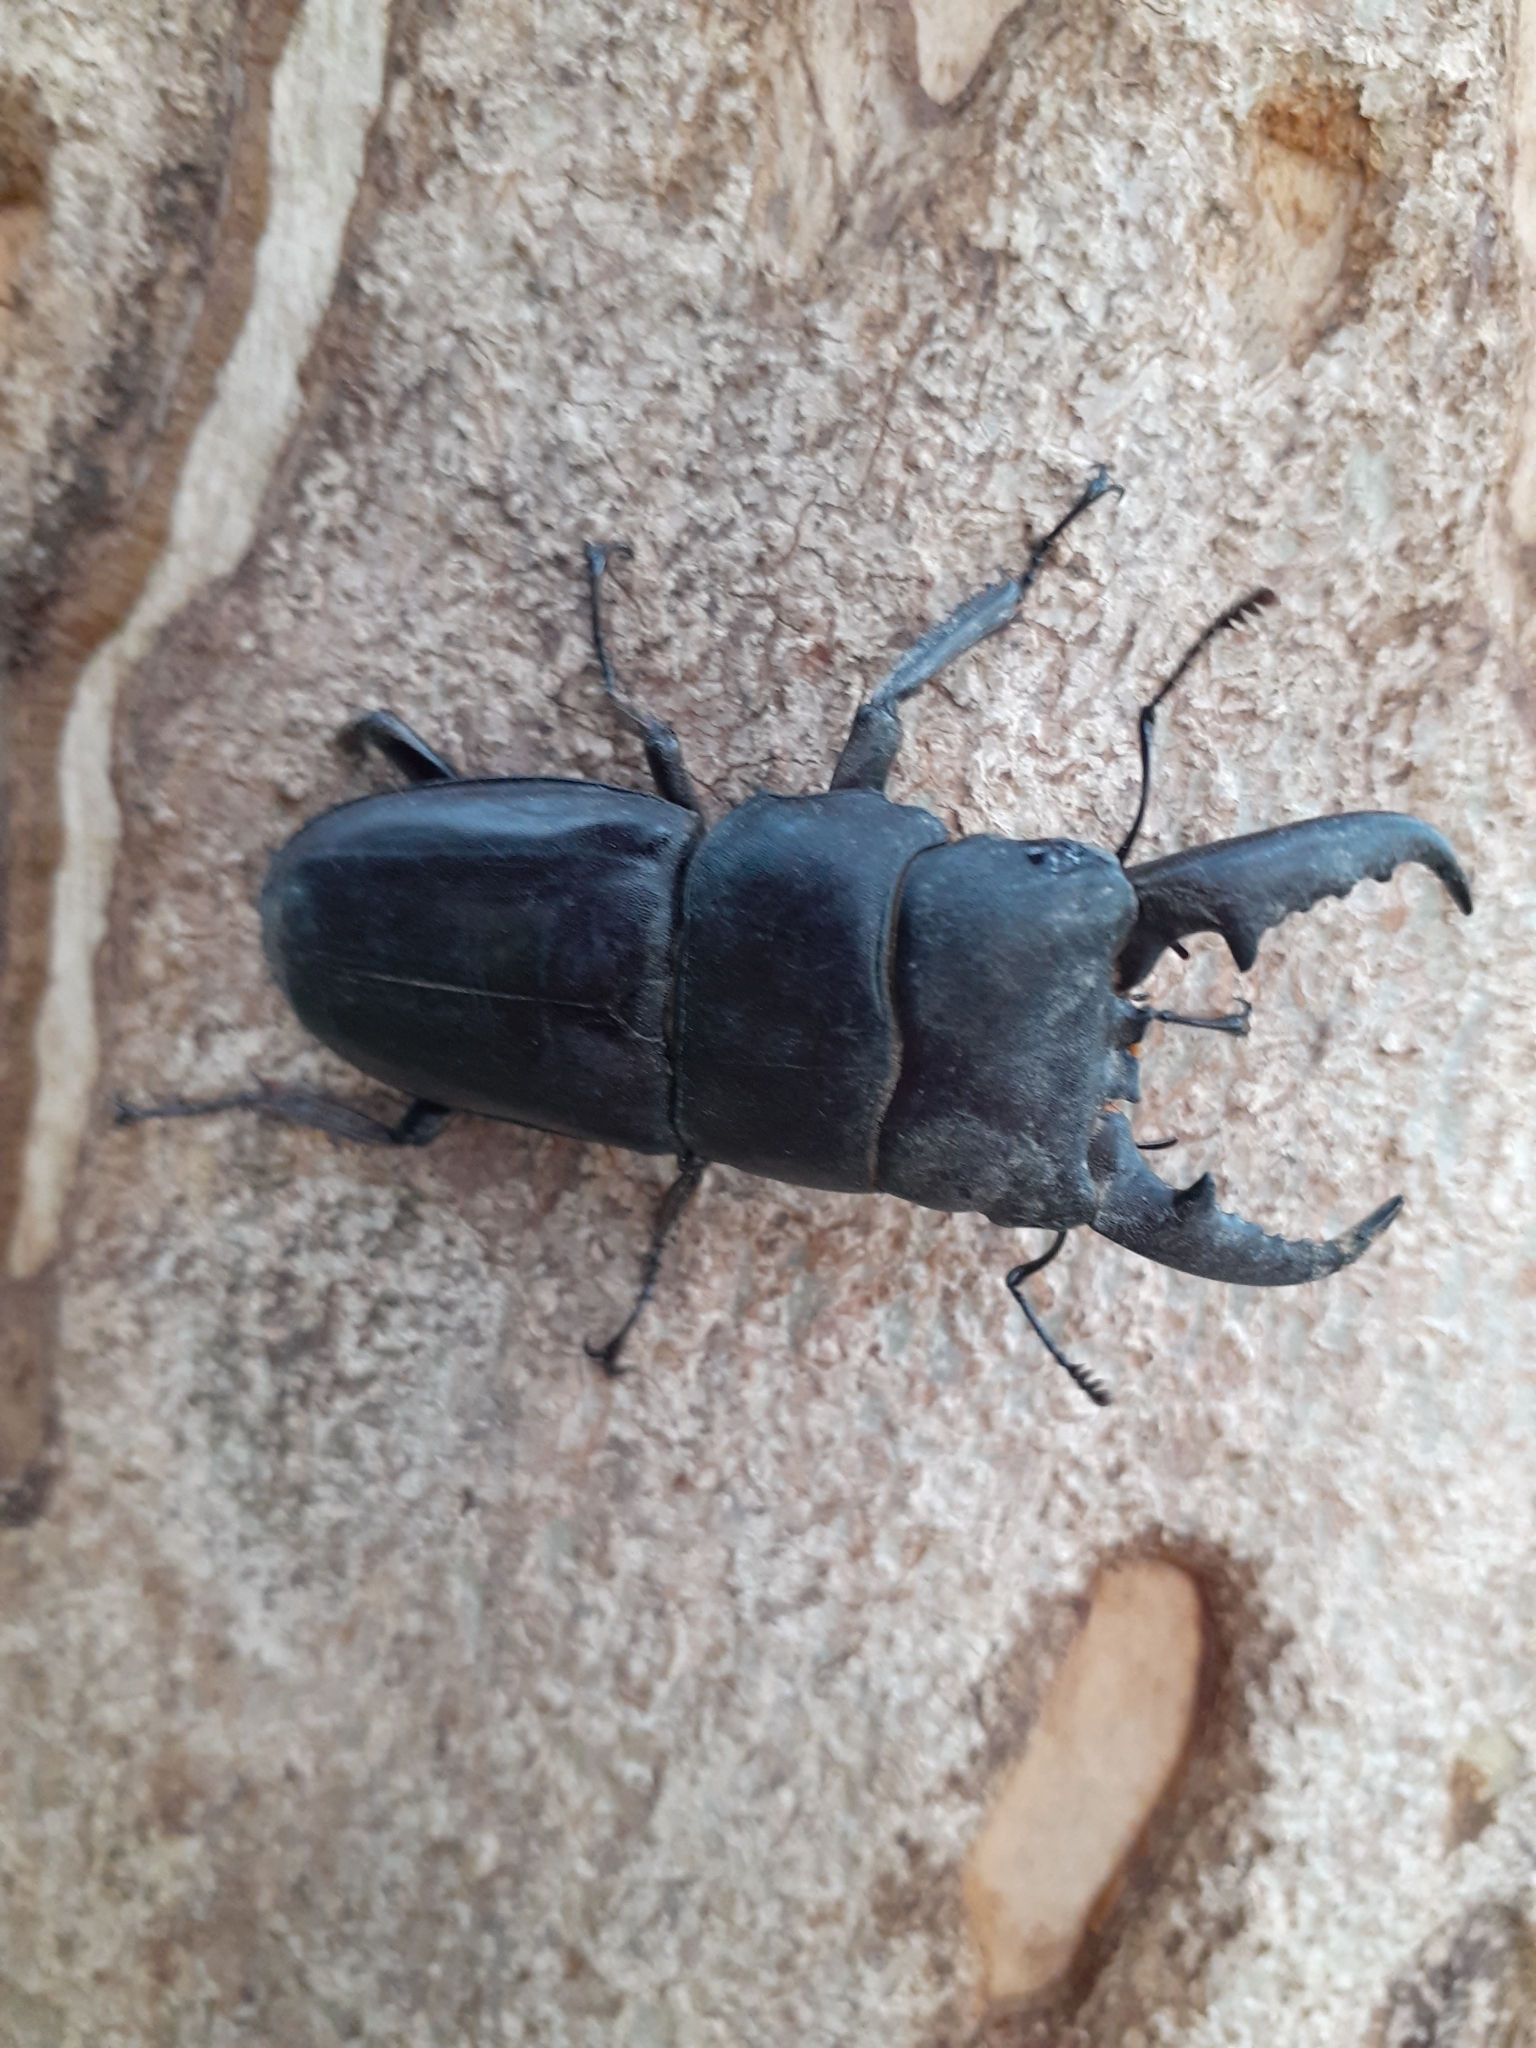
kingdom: Animalia
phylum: Arthropoda
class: Insecta
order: Coleoptera
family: Lucanidae
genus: Serrognathus
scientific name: Serrognathus titanus
